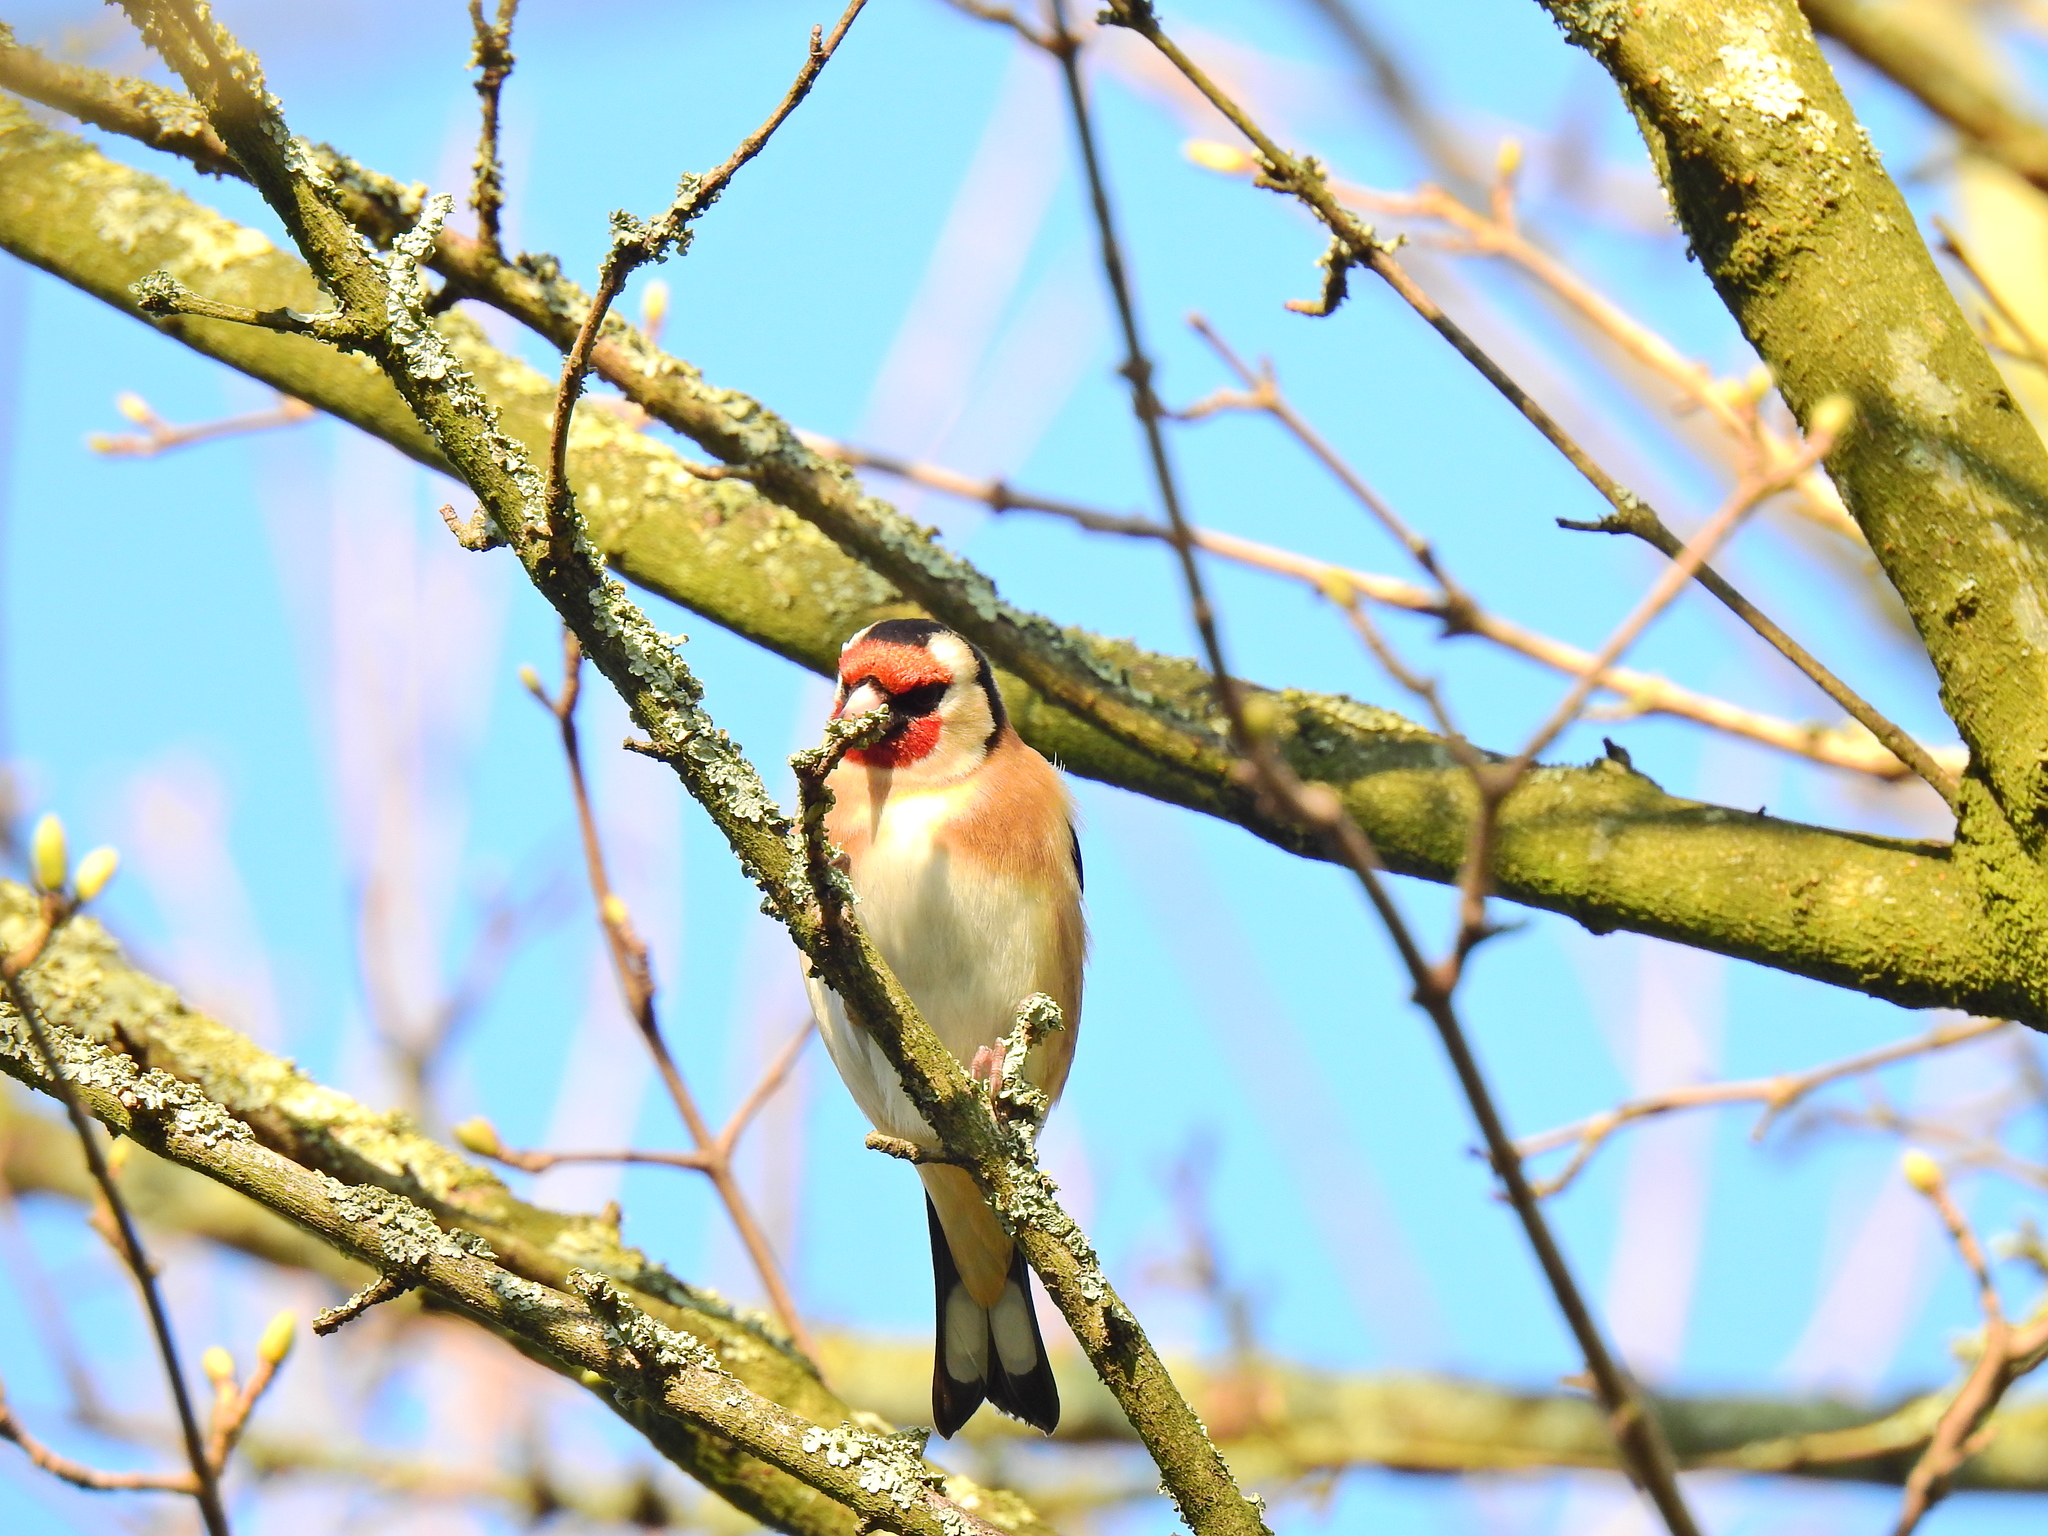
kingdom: Animalia
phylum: Chordata
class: Aves
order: Passeriformes
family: Fringillidae
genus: Carduelis
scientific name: Carduelis carduelis
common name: European goldfinch
